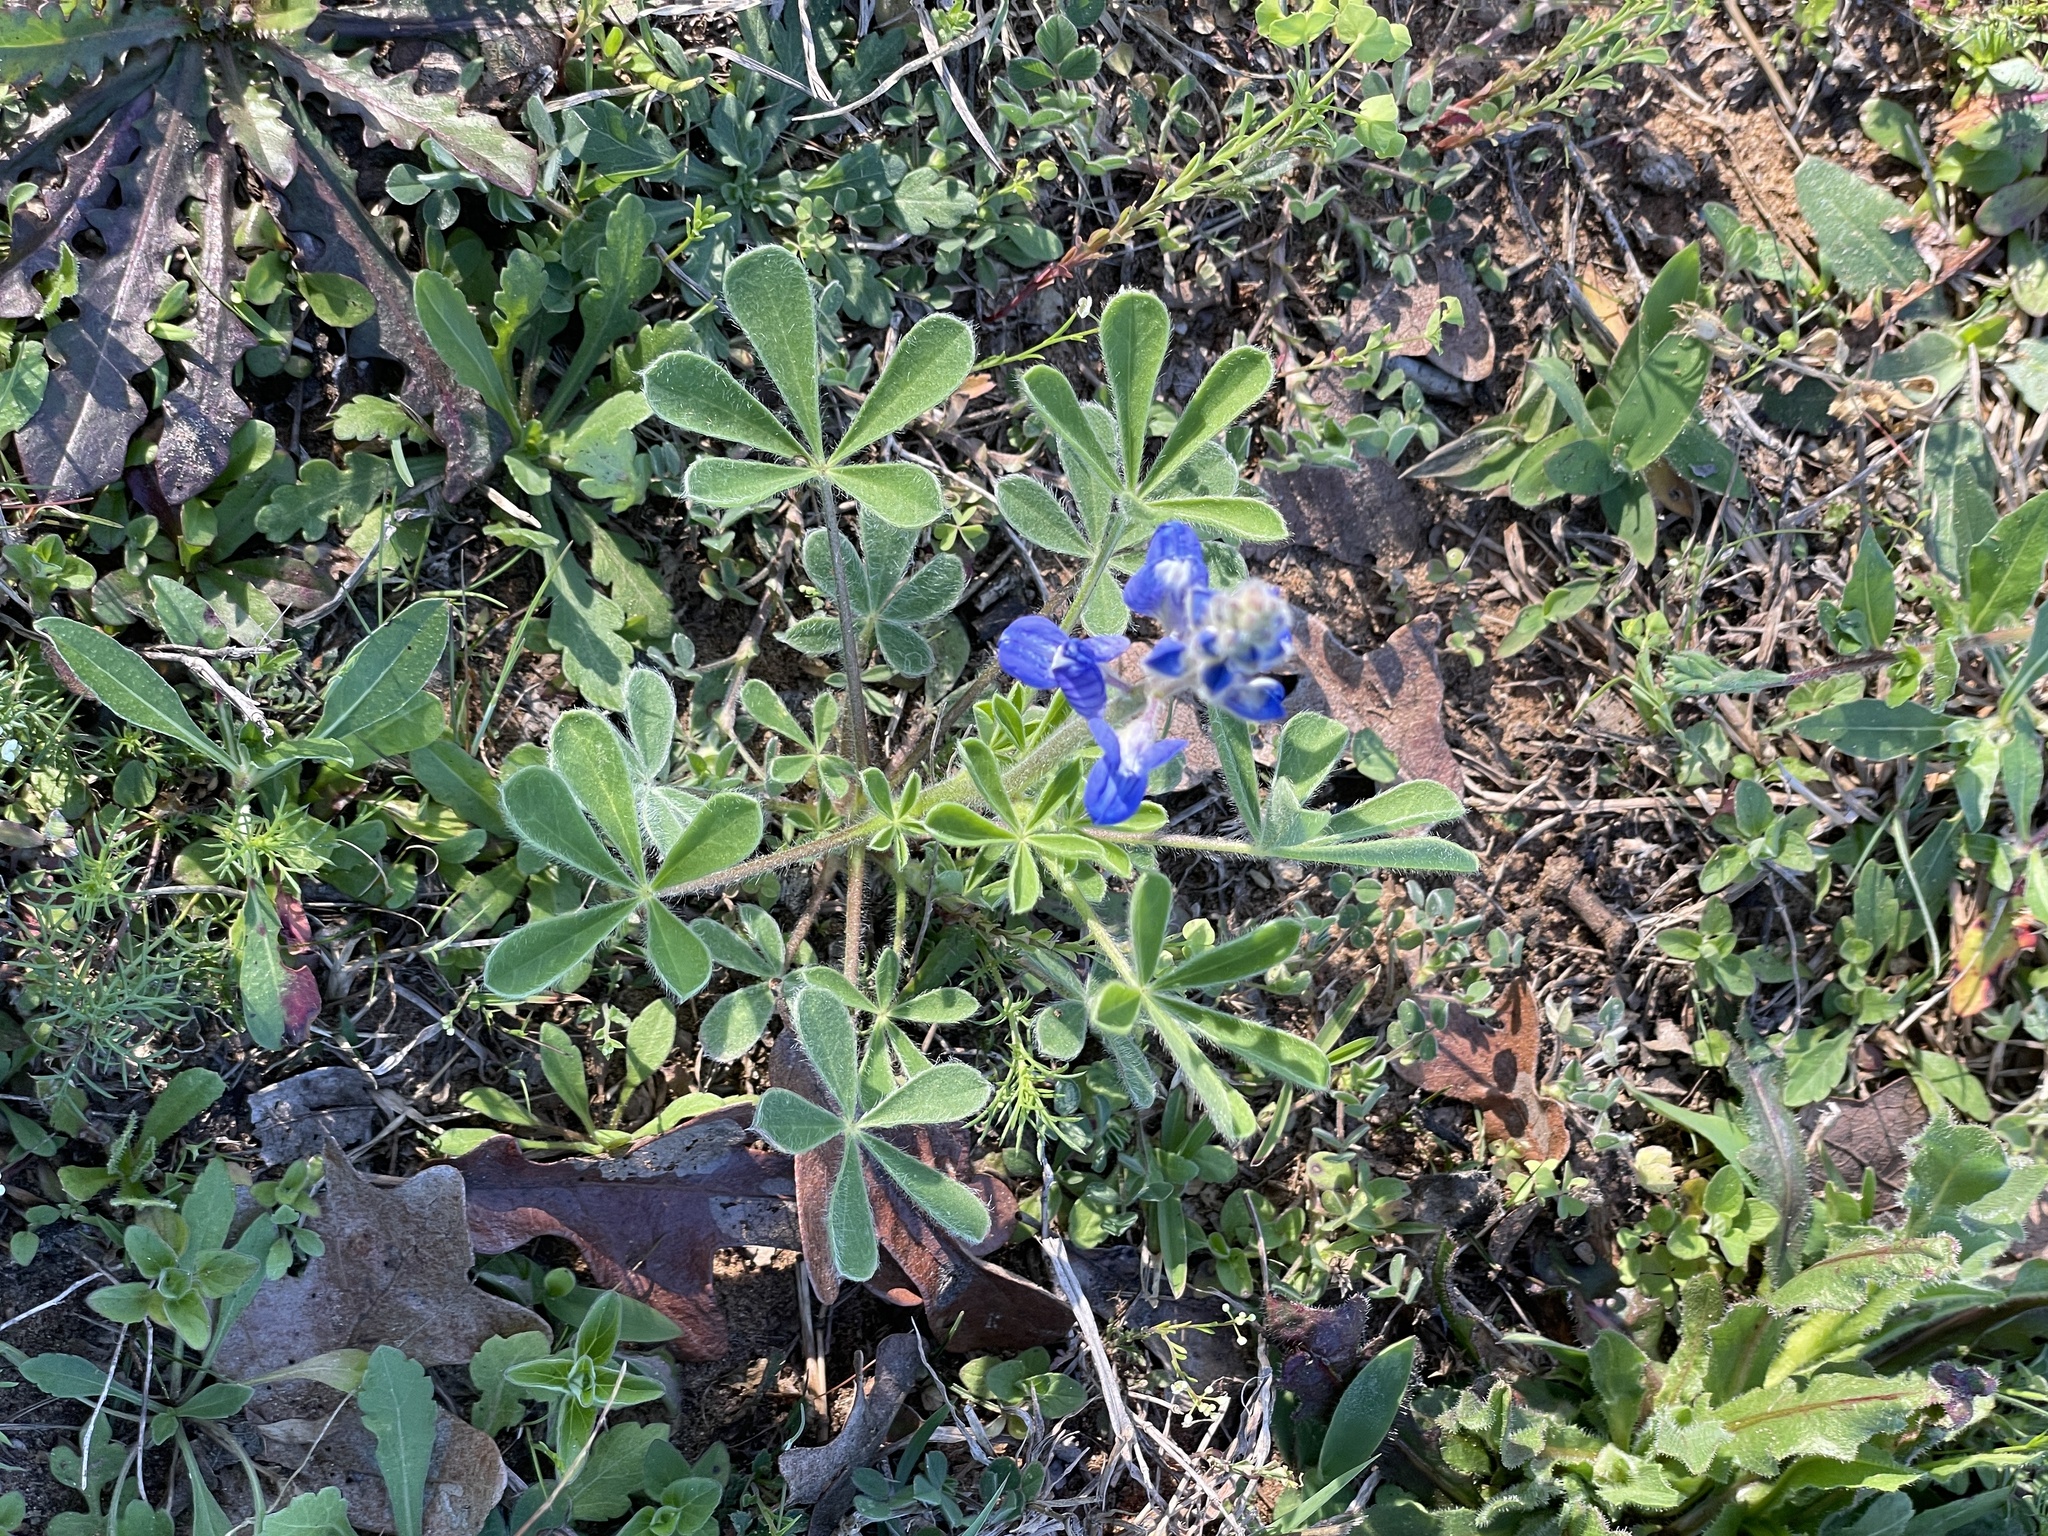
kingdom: Plantae
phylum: Tracheophyta
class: Magnoliopsida
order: Fabales
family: Fabaceae
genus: Lupinus
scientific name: Lupinus subcarnosus
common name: Texas bluebonnet
